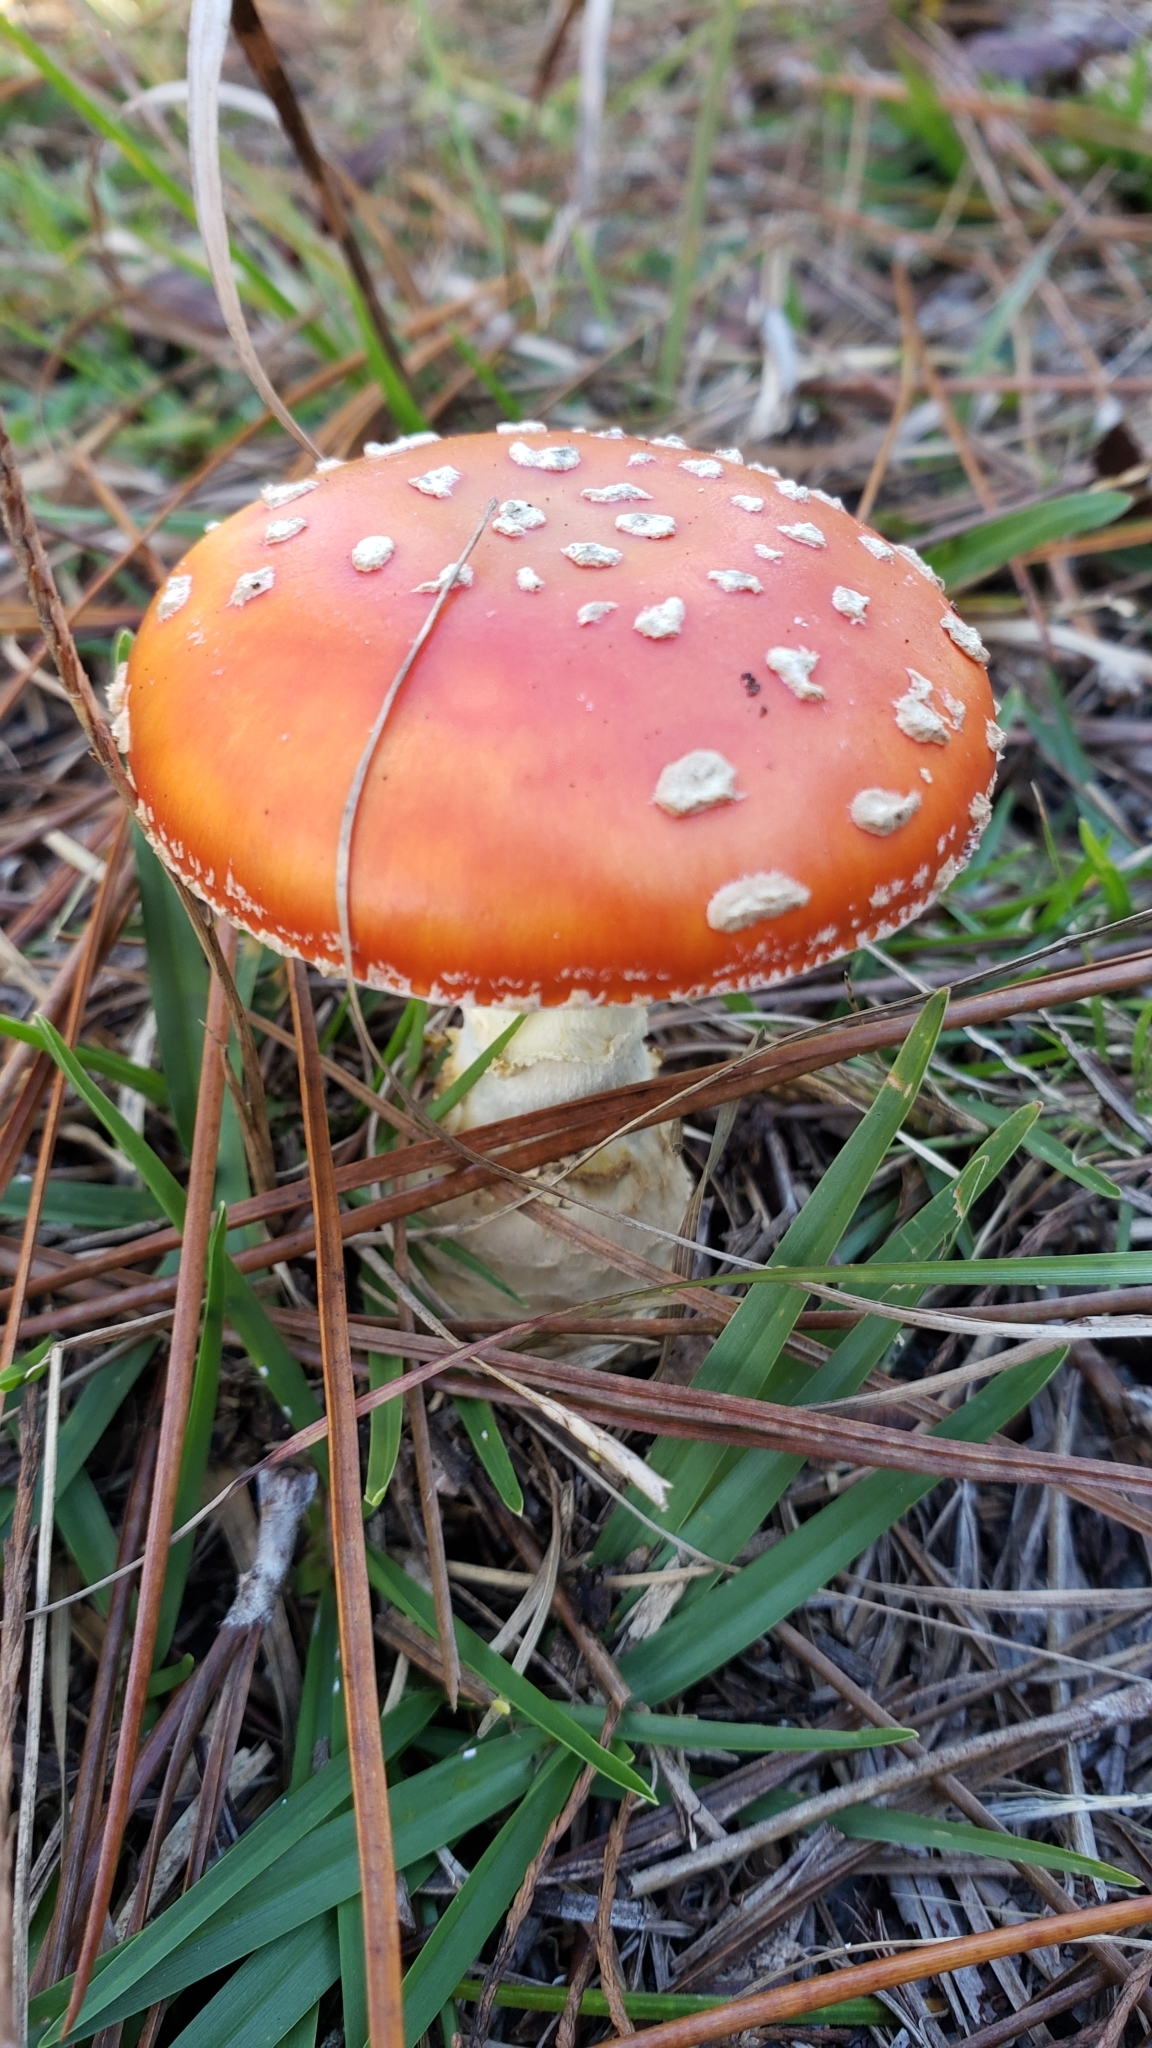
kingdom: Fungi
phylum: Basidiomycota
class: Agaricomycetes
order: Agaricales
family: Amanitaceae
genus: Amanita
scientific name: Amanita persicina
